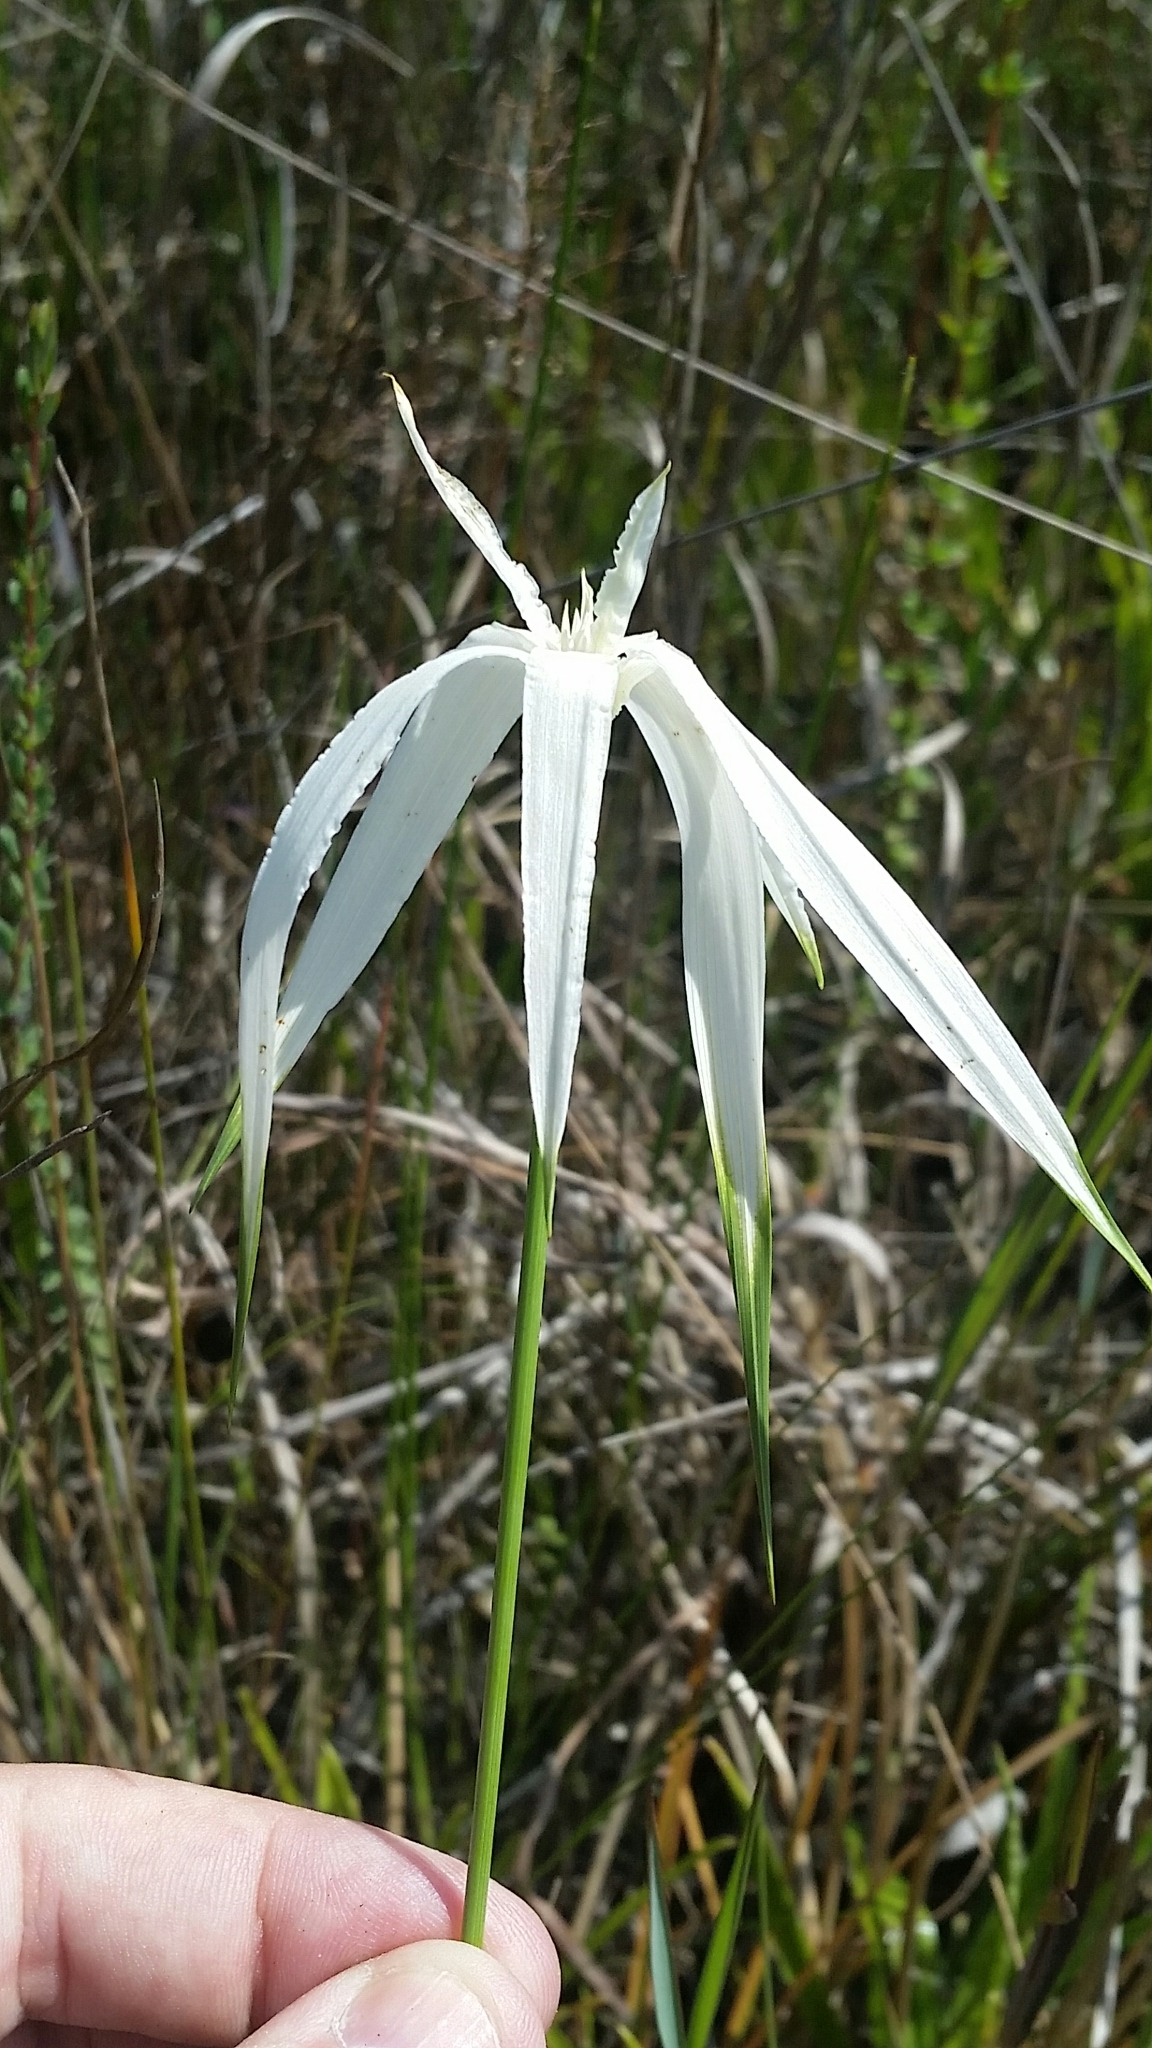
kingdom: Plantae
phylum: Tracheophyta
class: Liliopsida
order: Poales
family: Cyperaceae
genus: Rhynchospora
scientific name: Rhynchospora latifolia
